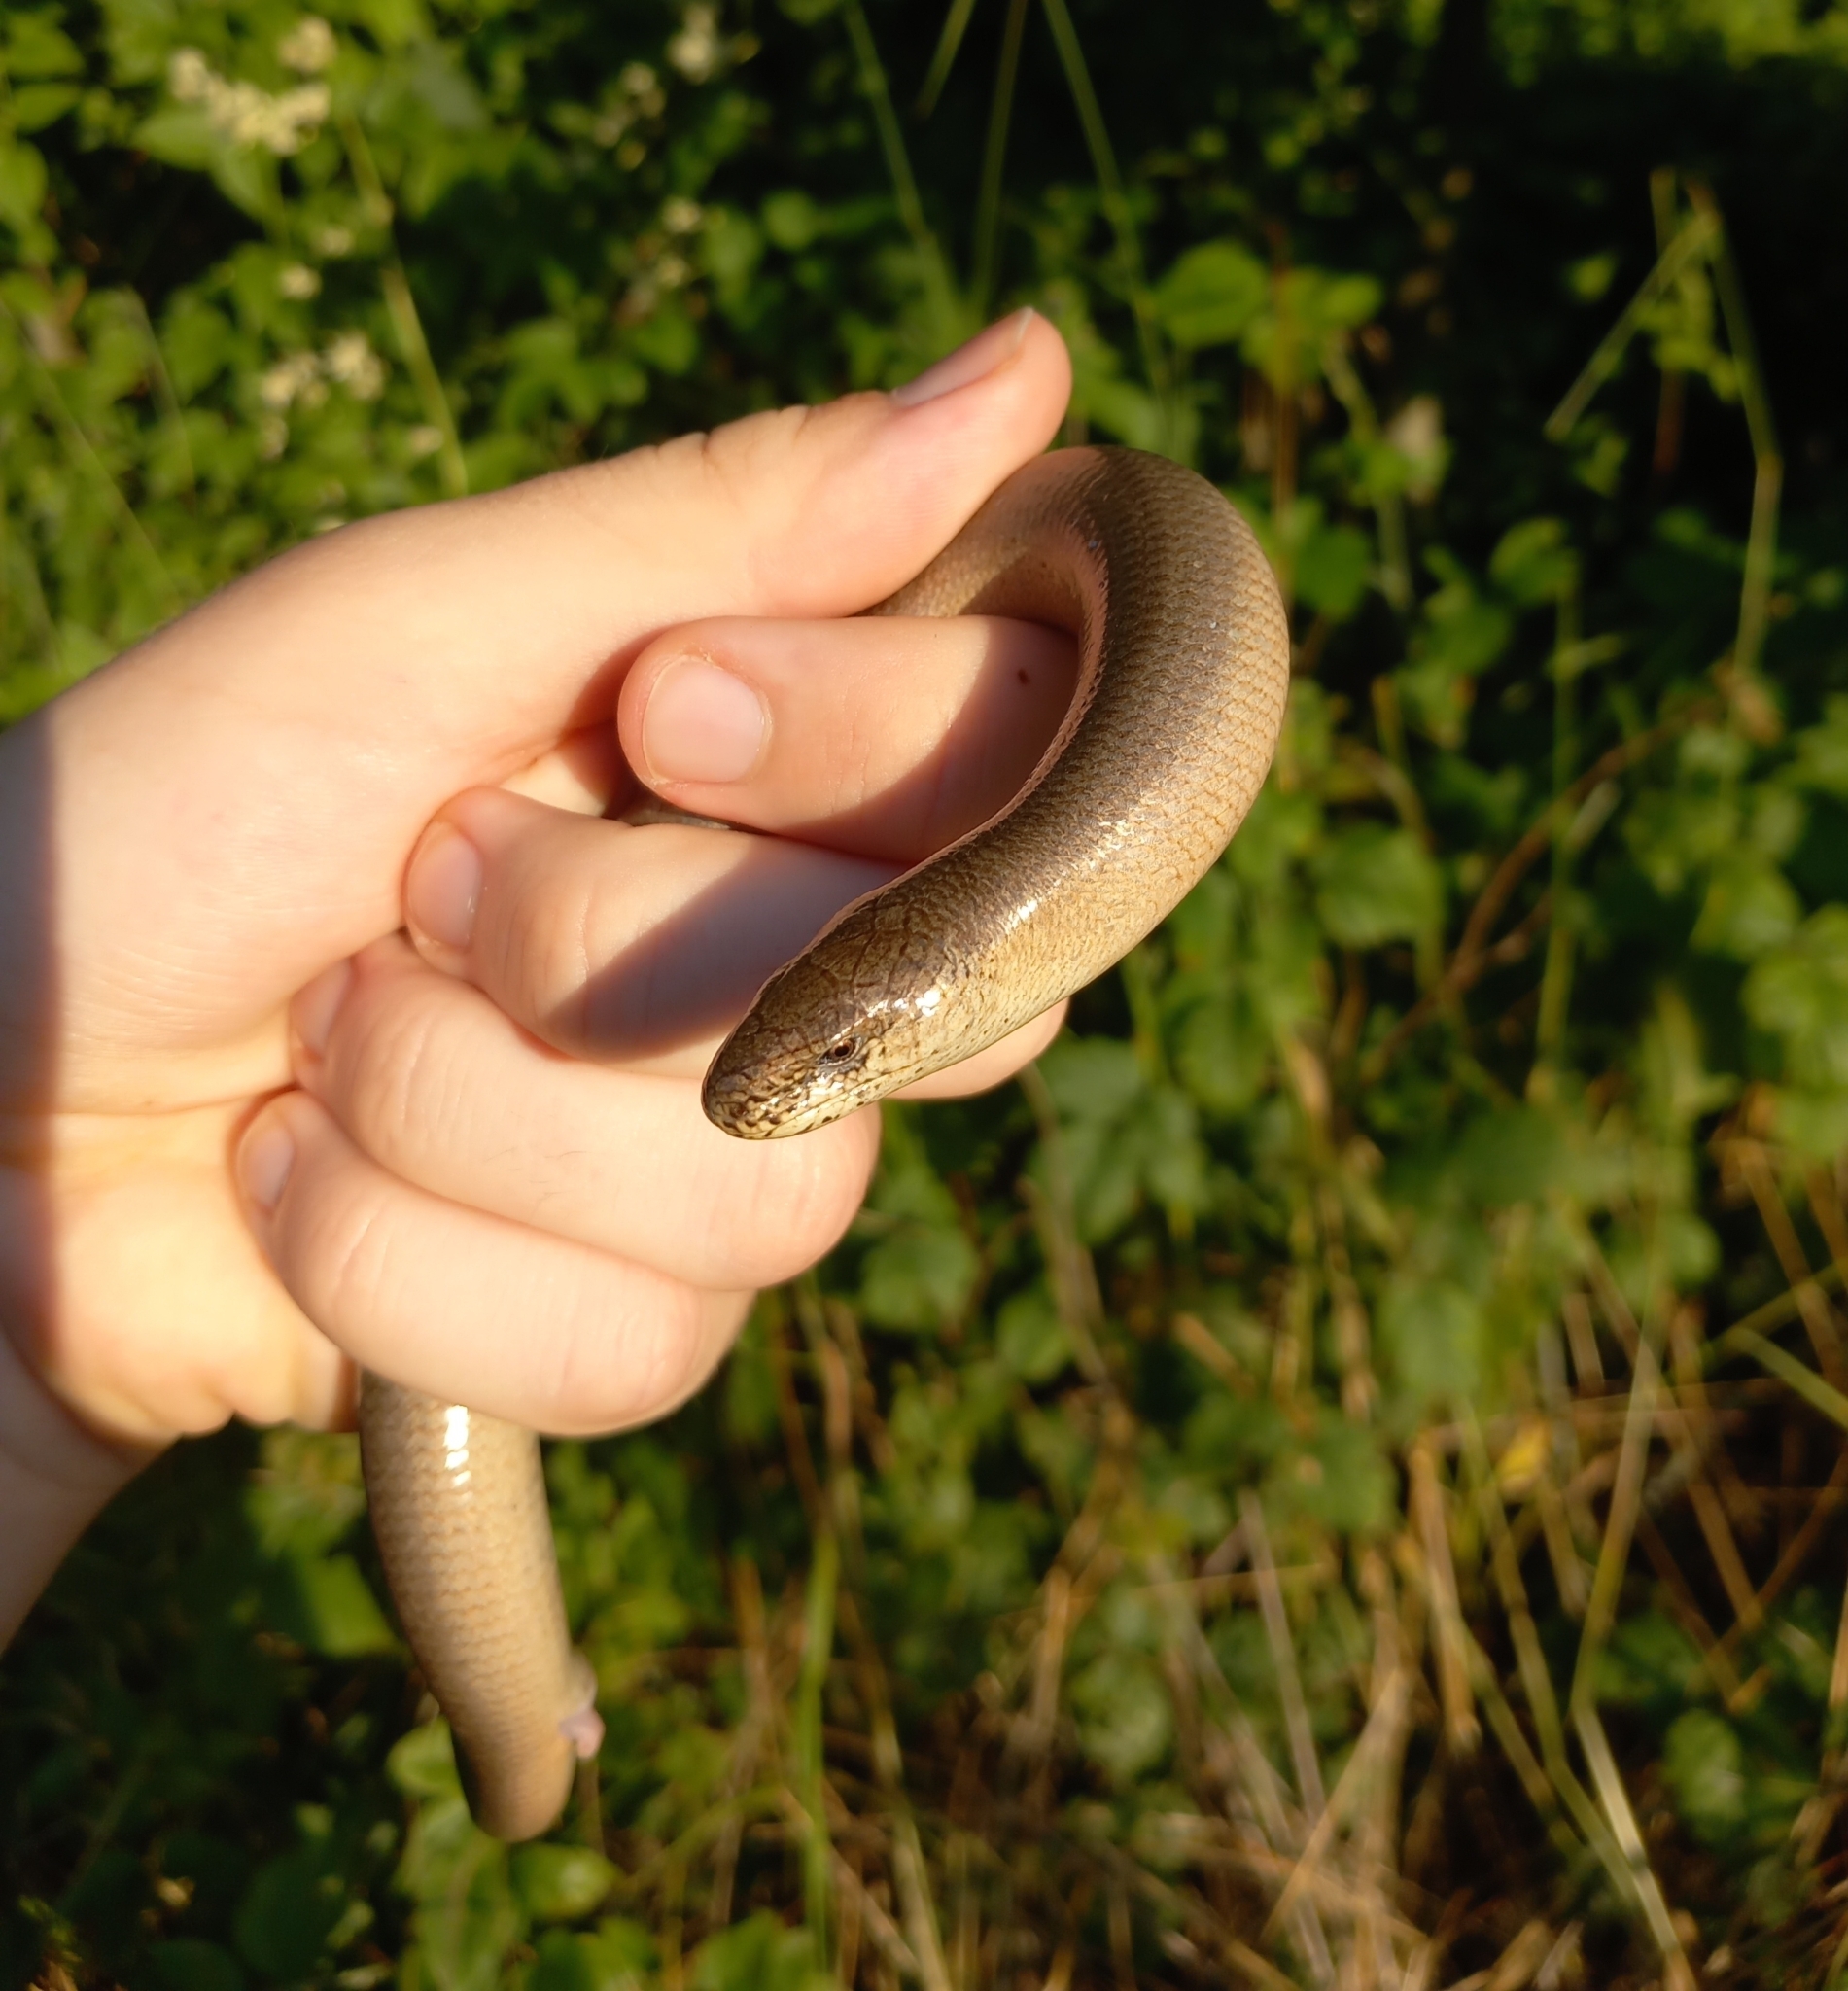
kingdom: Animalia
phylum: Chordata
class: Squamata
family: Anguidae
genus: Anguis
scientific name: Anguis fragilis
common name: Slow worm
